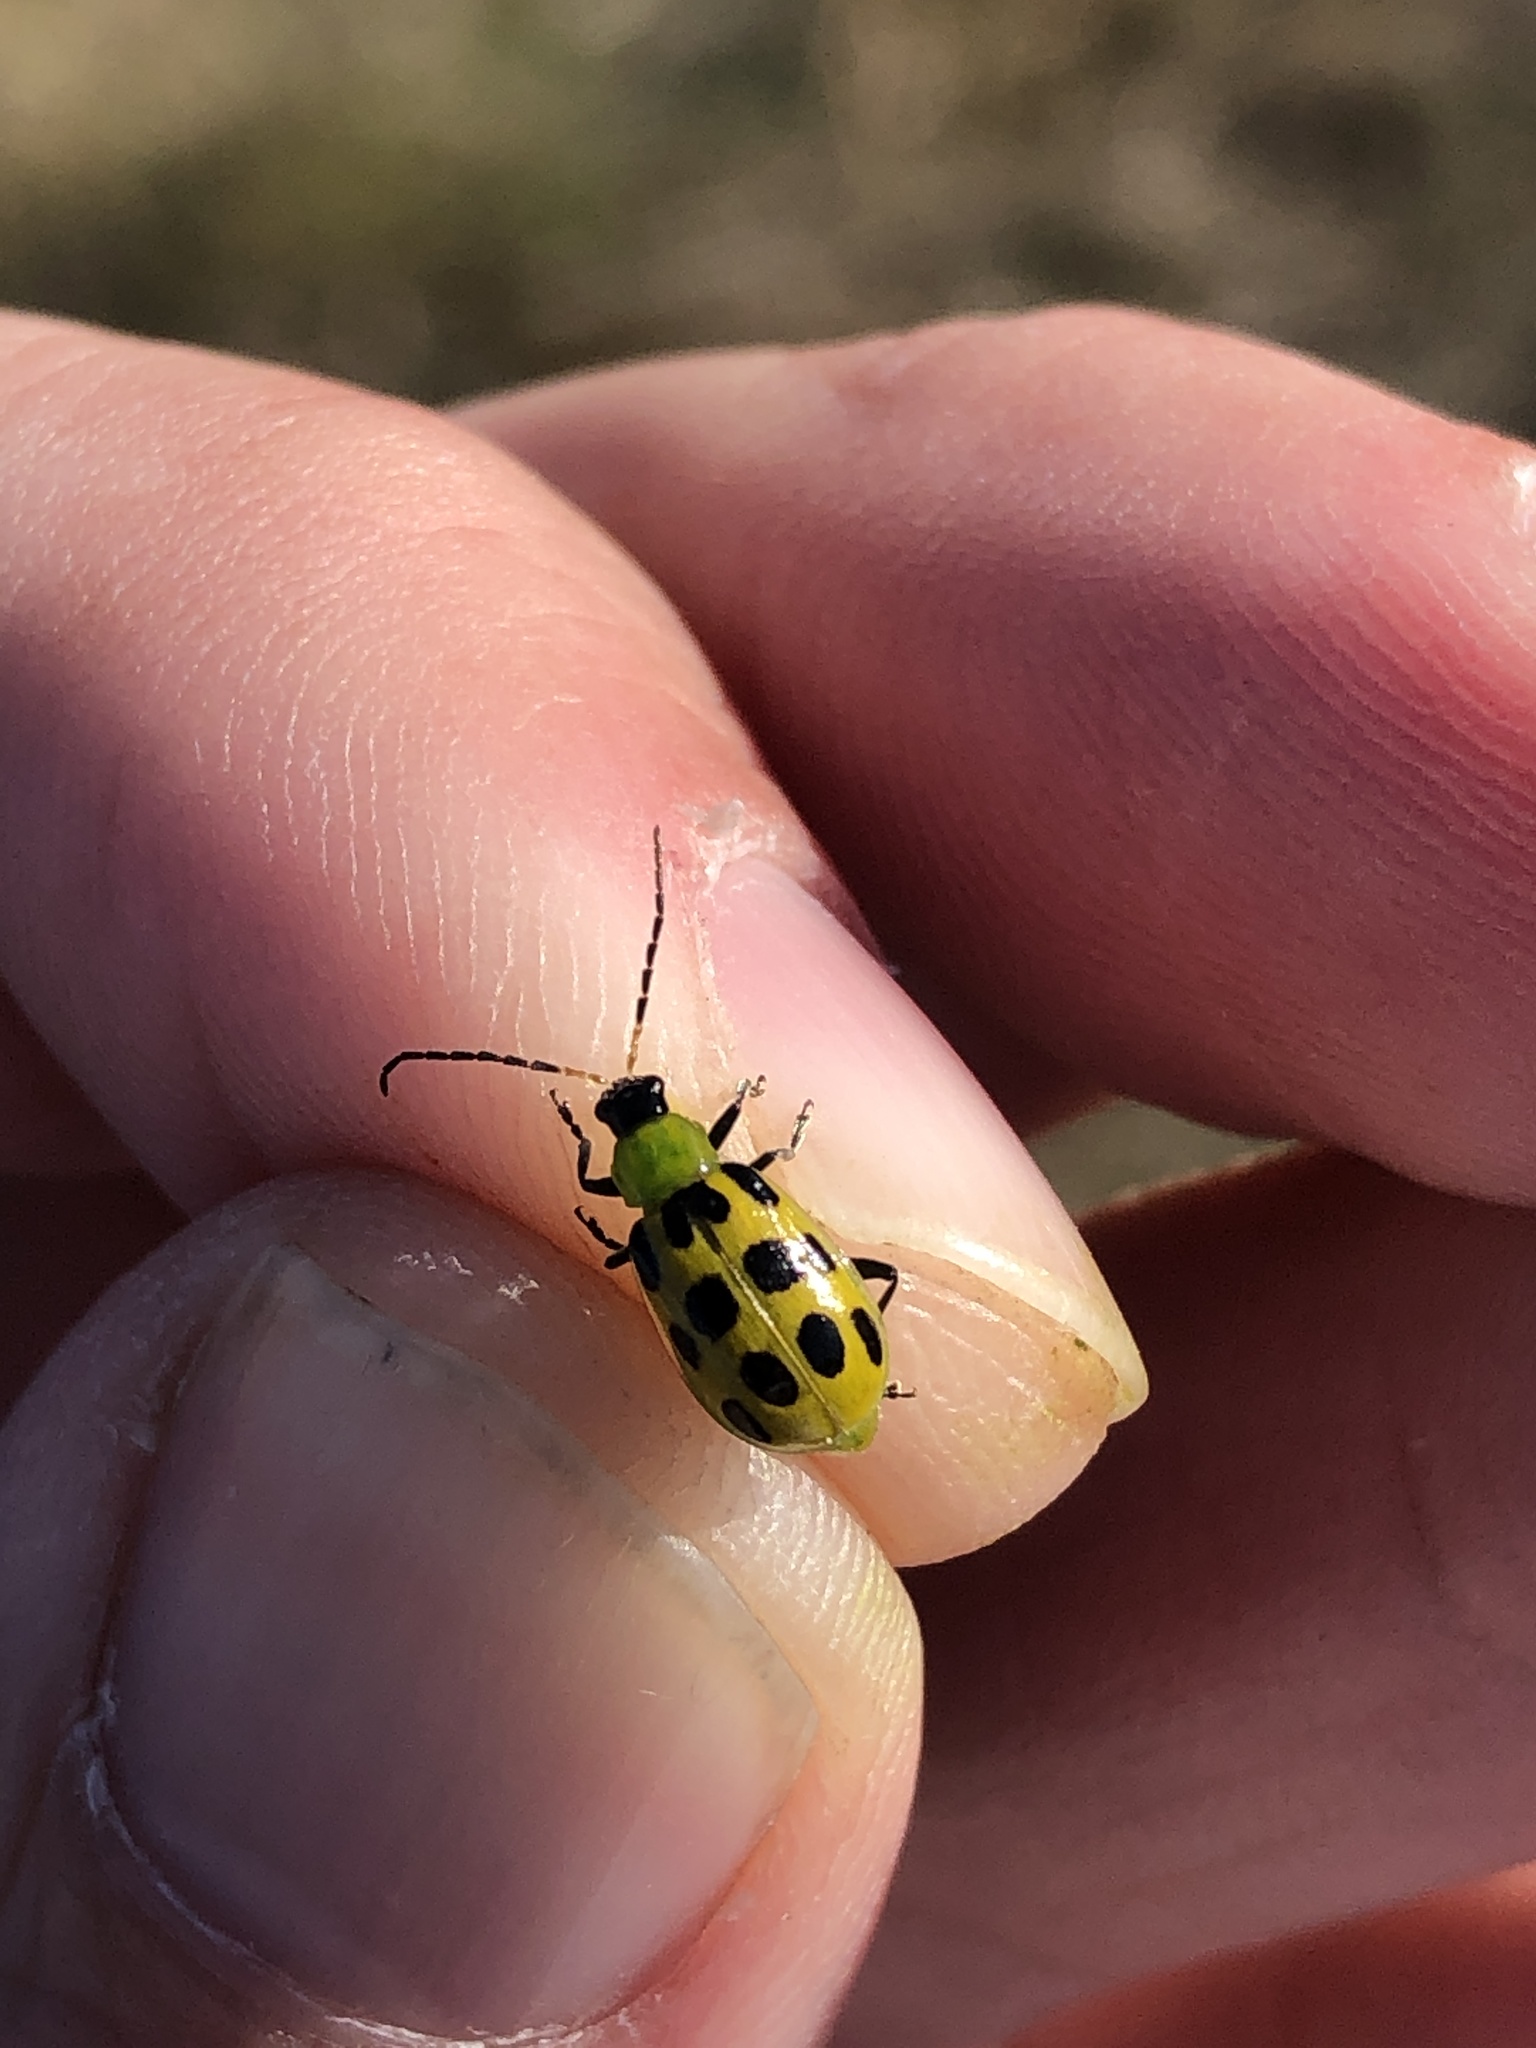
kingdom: Animalia
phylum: Arthropoda
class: Insecta
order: Coleoptera
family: Chrysomelidae
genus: Diabrotica
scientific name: Diabrotica undecimpunctata
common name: Spotted cucumber beetle
